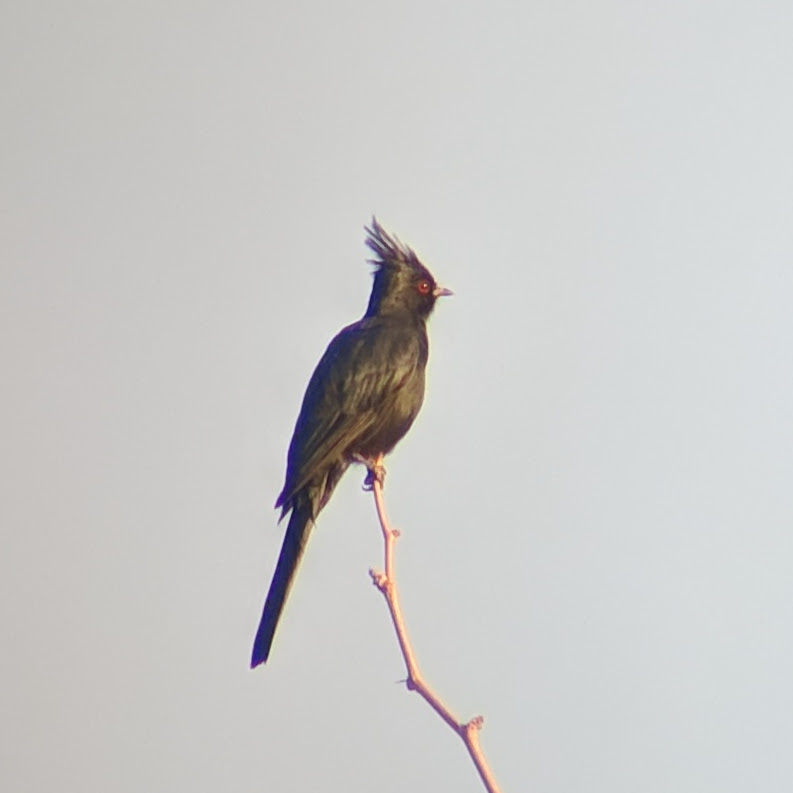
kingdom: Animalia
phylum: Chordata
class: Aves
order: Passeriformes
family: Ptilogonatidae
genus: Phainopepla
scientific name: Phainopepla nitens
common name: Phainopepla
